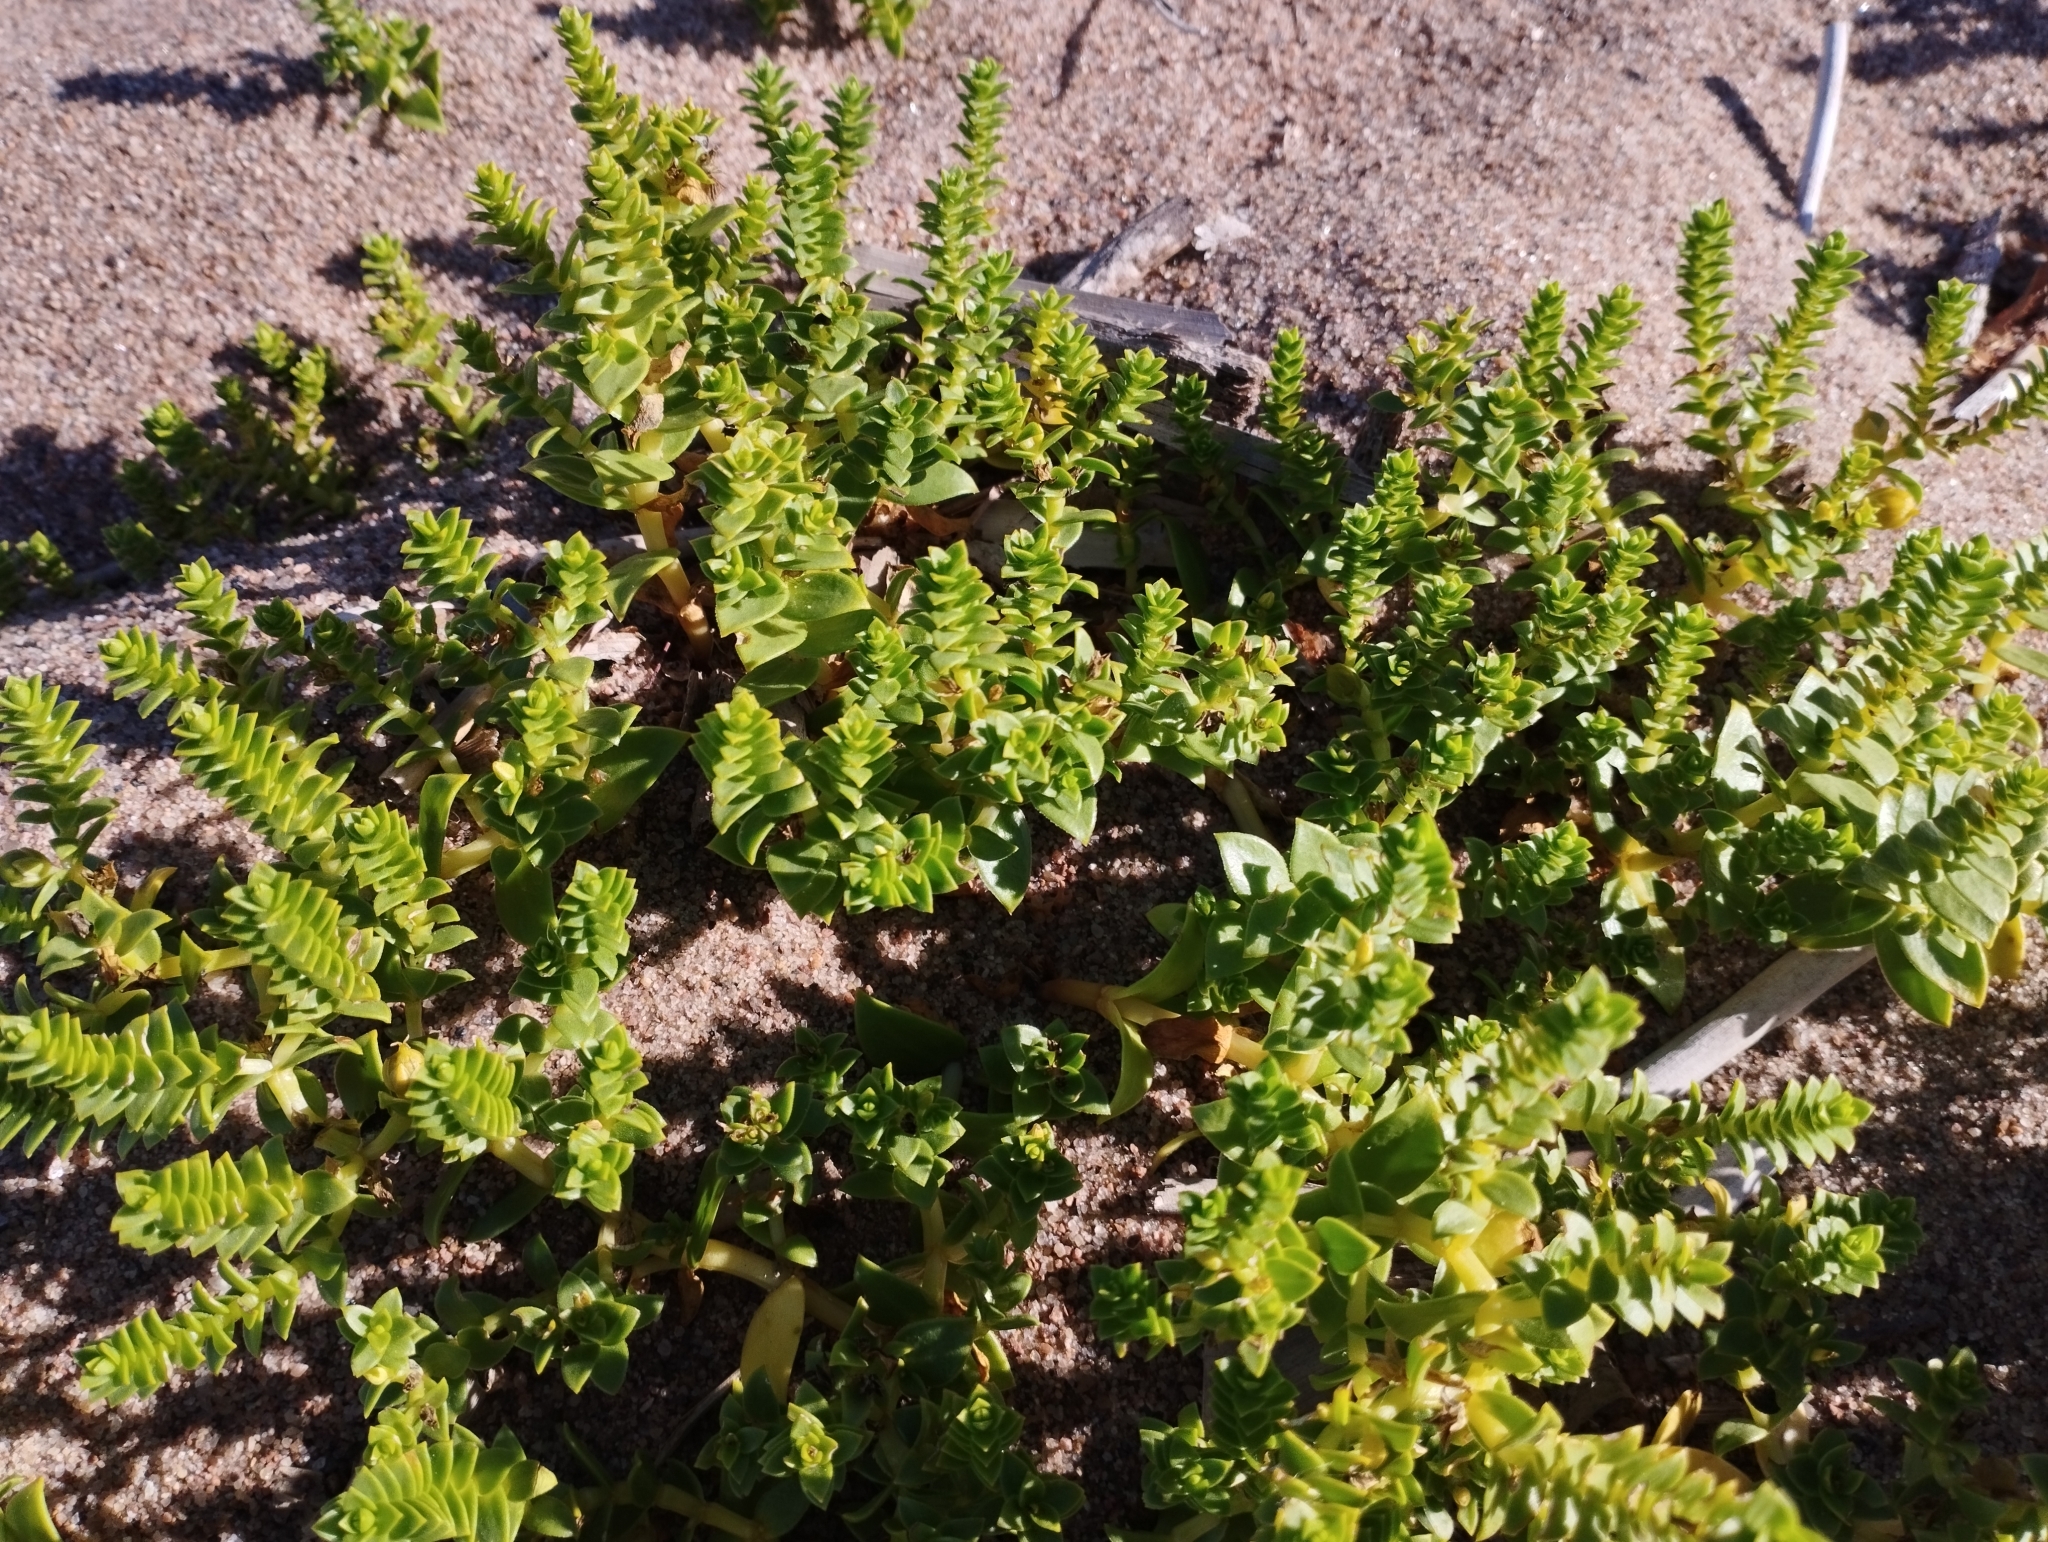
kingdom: Plantae
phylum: Tracheophyta
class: Magnoliopsida
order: Caryophyllales
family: Caryophyllaceae
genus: Honckenya
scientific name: Honckenya peploides
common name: Sea sandwort
